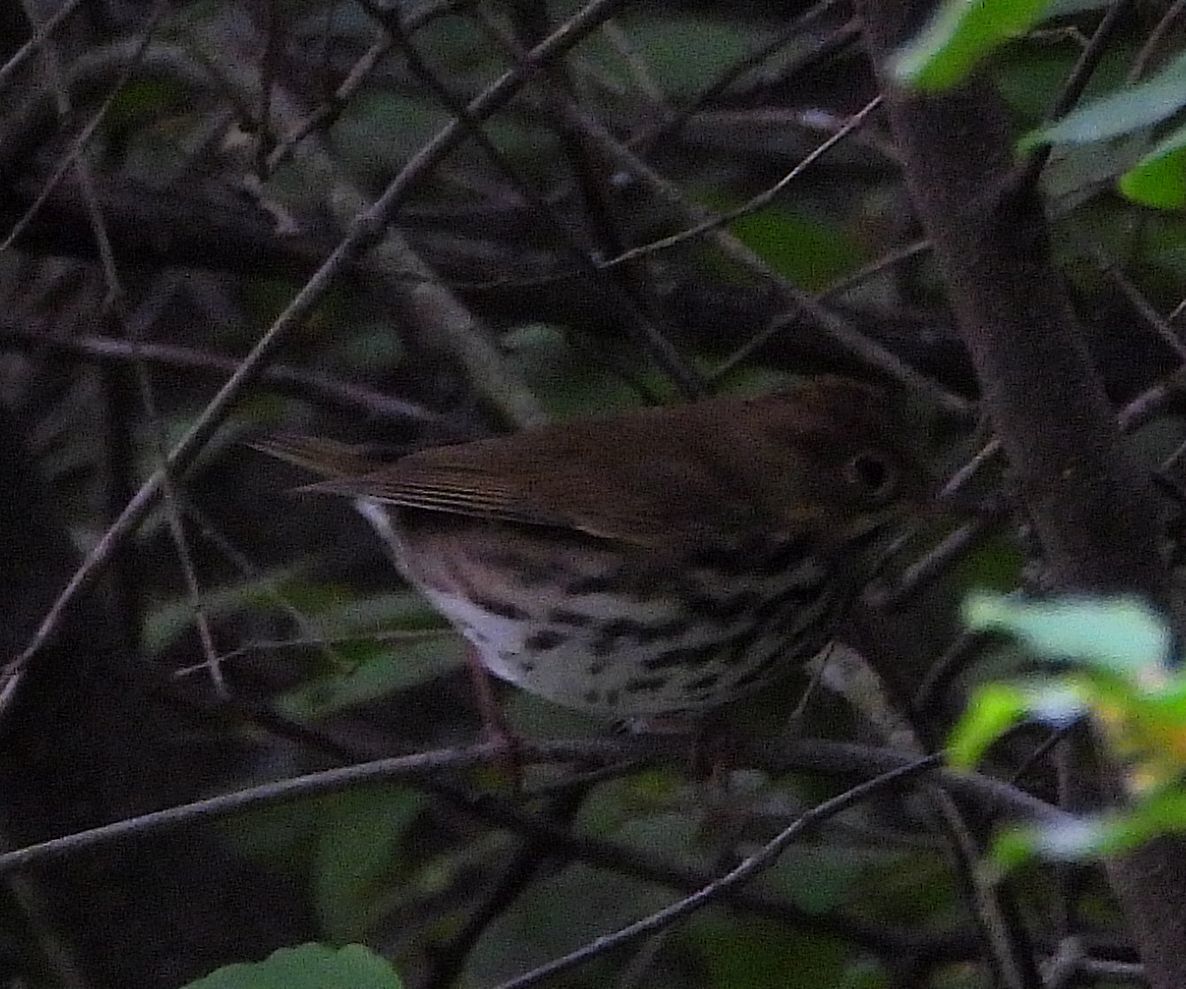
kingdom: Animalia
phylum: Chordata
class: Aves
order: Passeriformes
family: Parulidae
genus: Seiurus
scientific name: Seiurus aurocapilla
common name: Ovenbird
